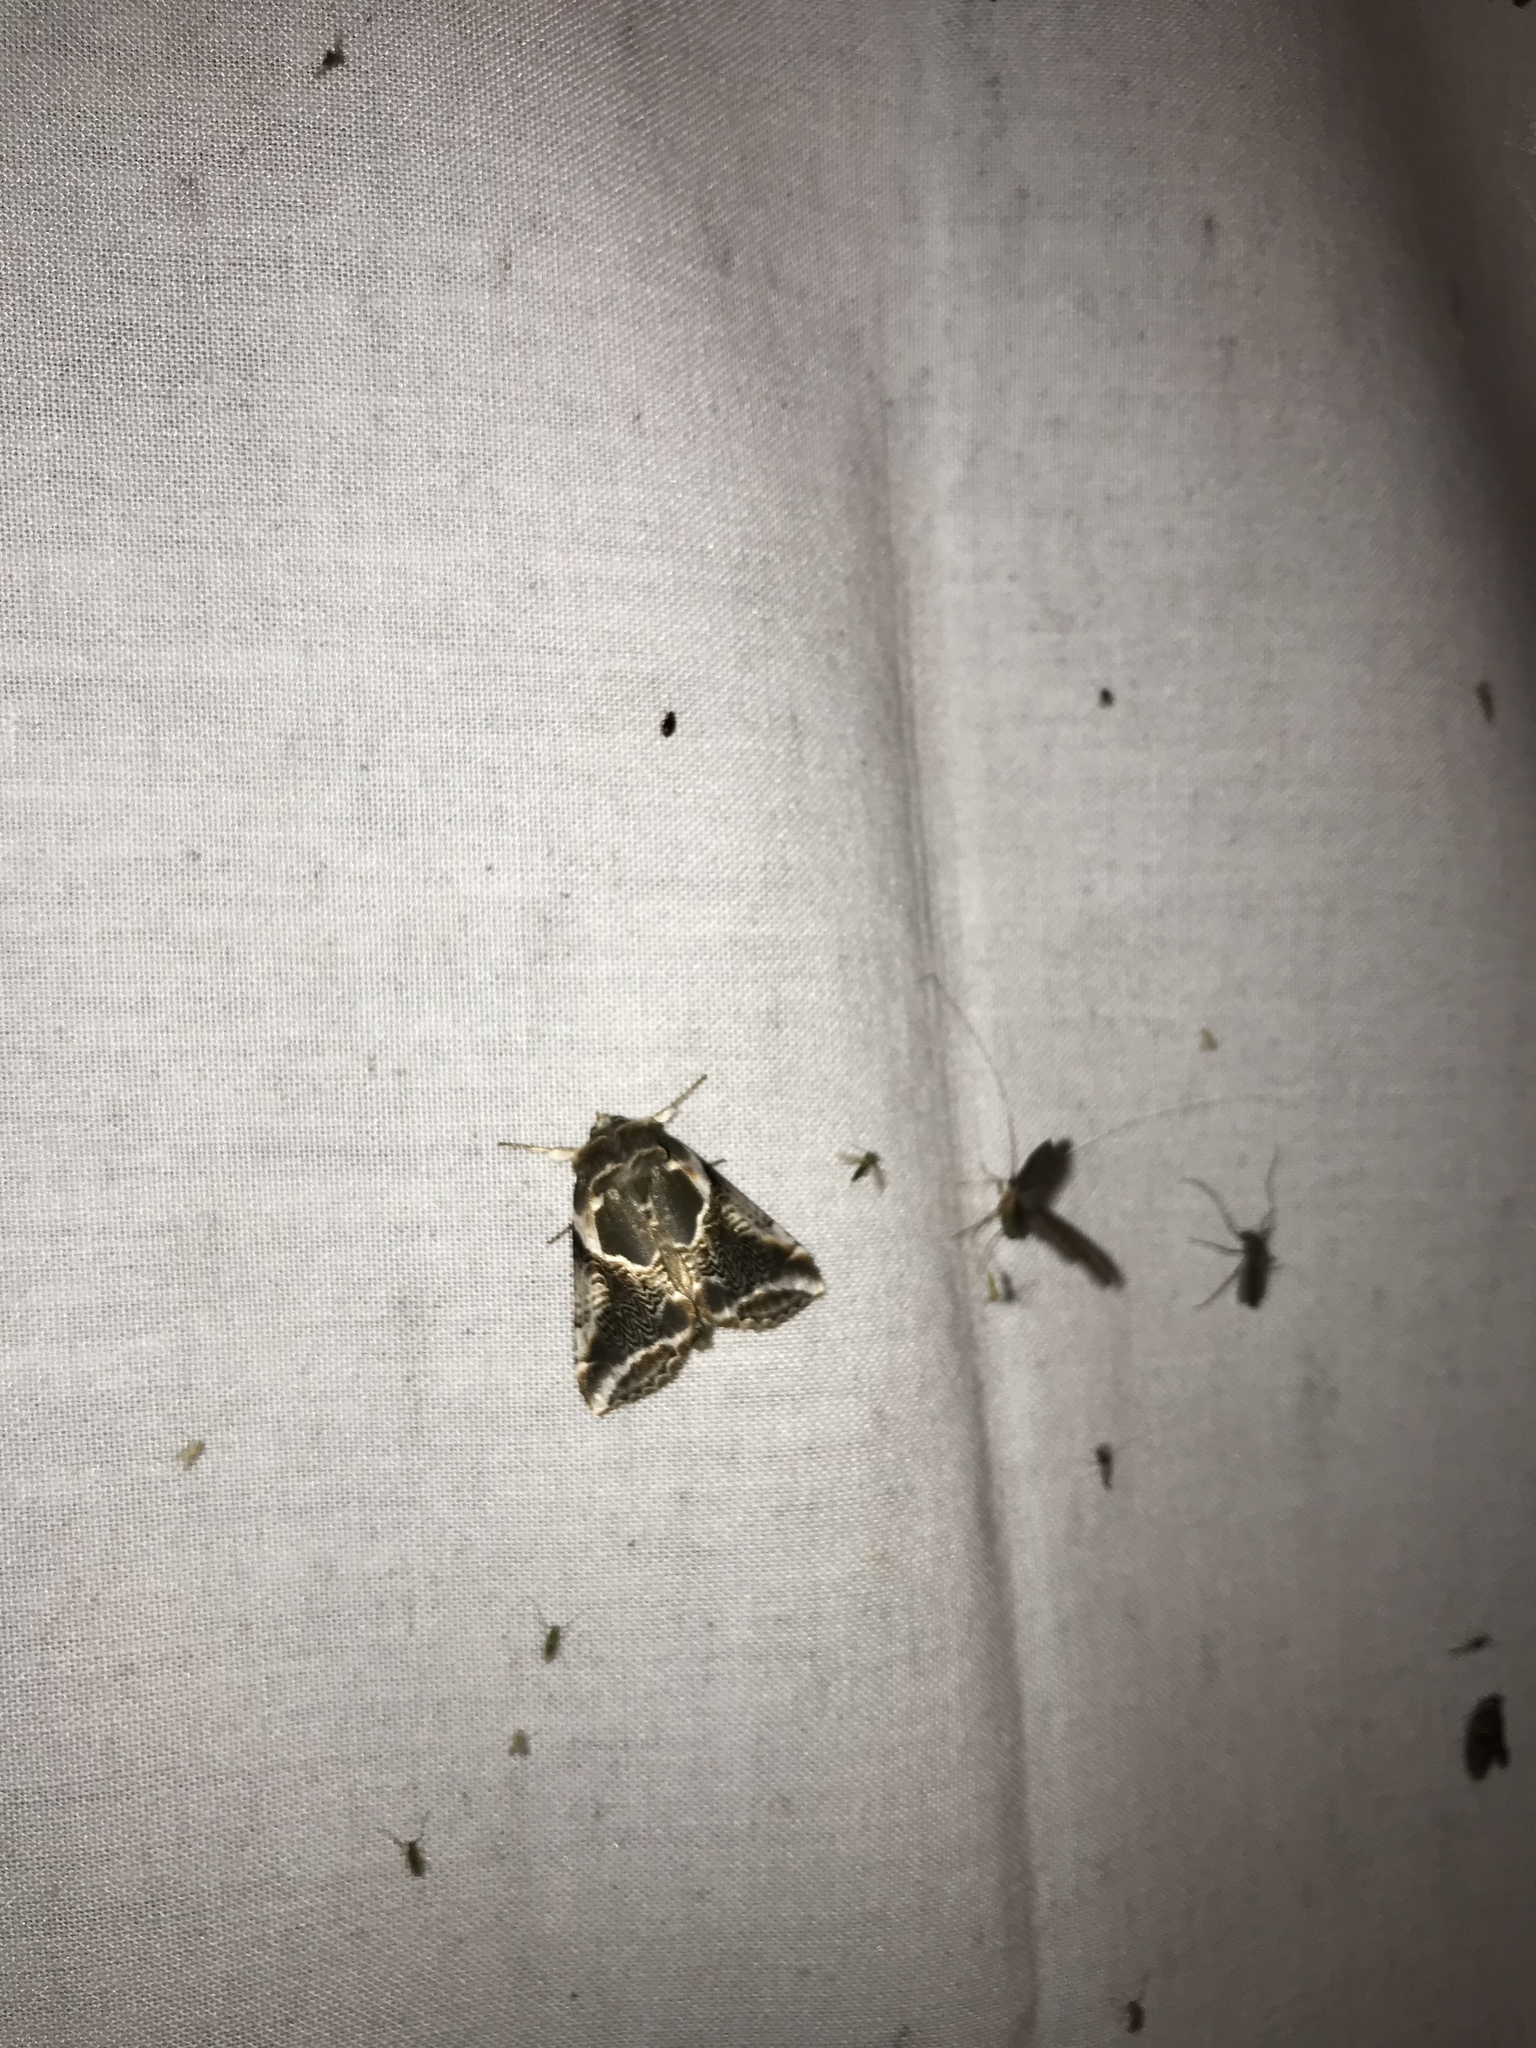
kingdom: Animalia
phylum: Arthropoda
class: Insecta
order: Lepidoptera
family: Drepanidae
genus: Habrosyne
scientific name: Habrosyne scripta
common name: Lettered habrosyne moth
